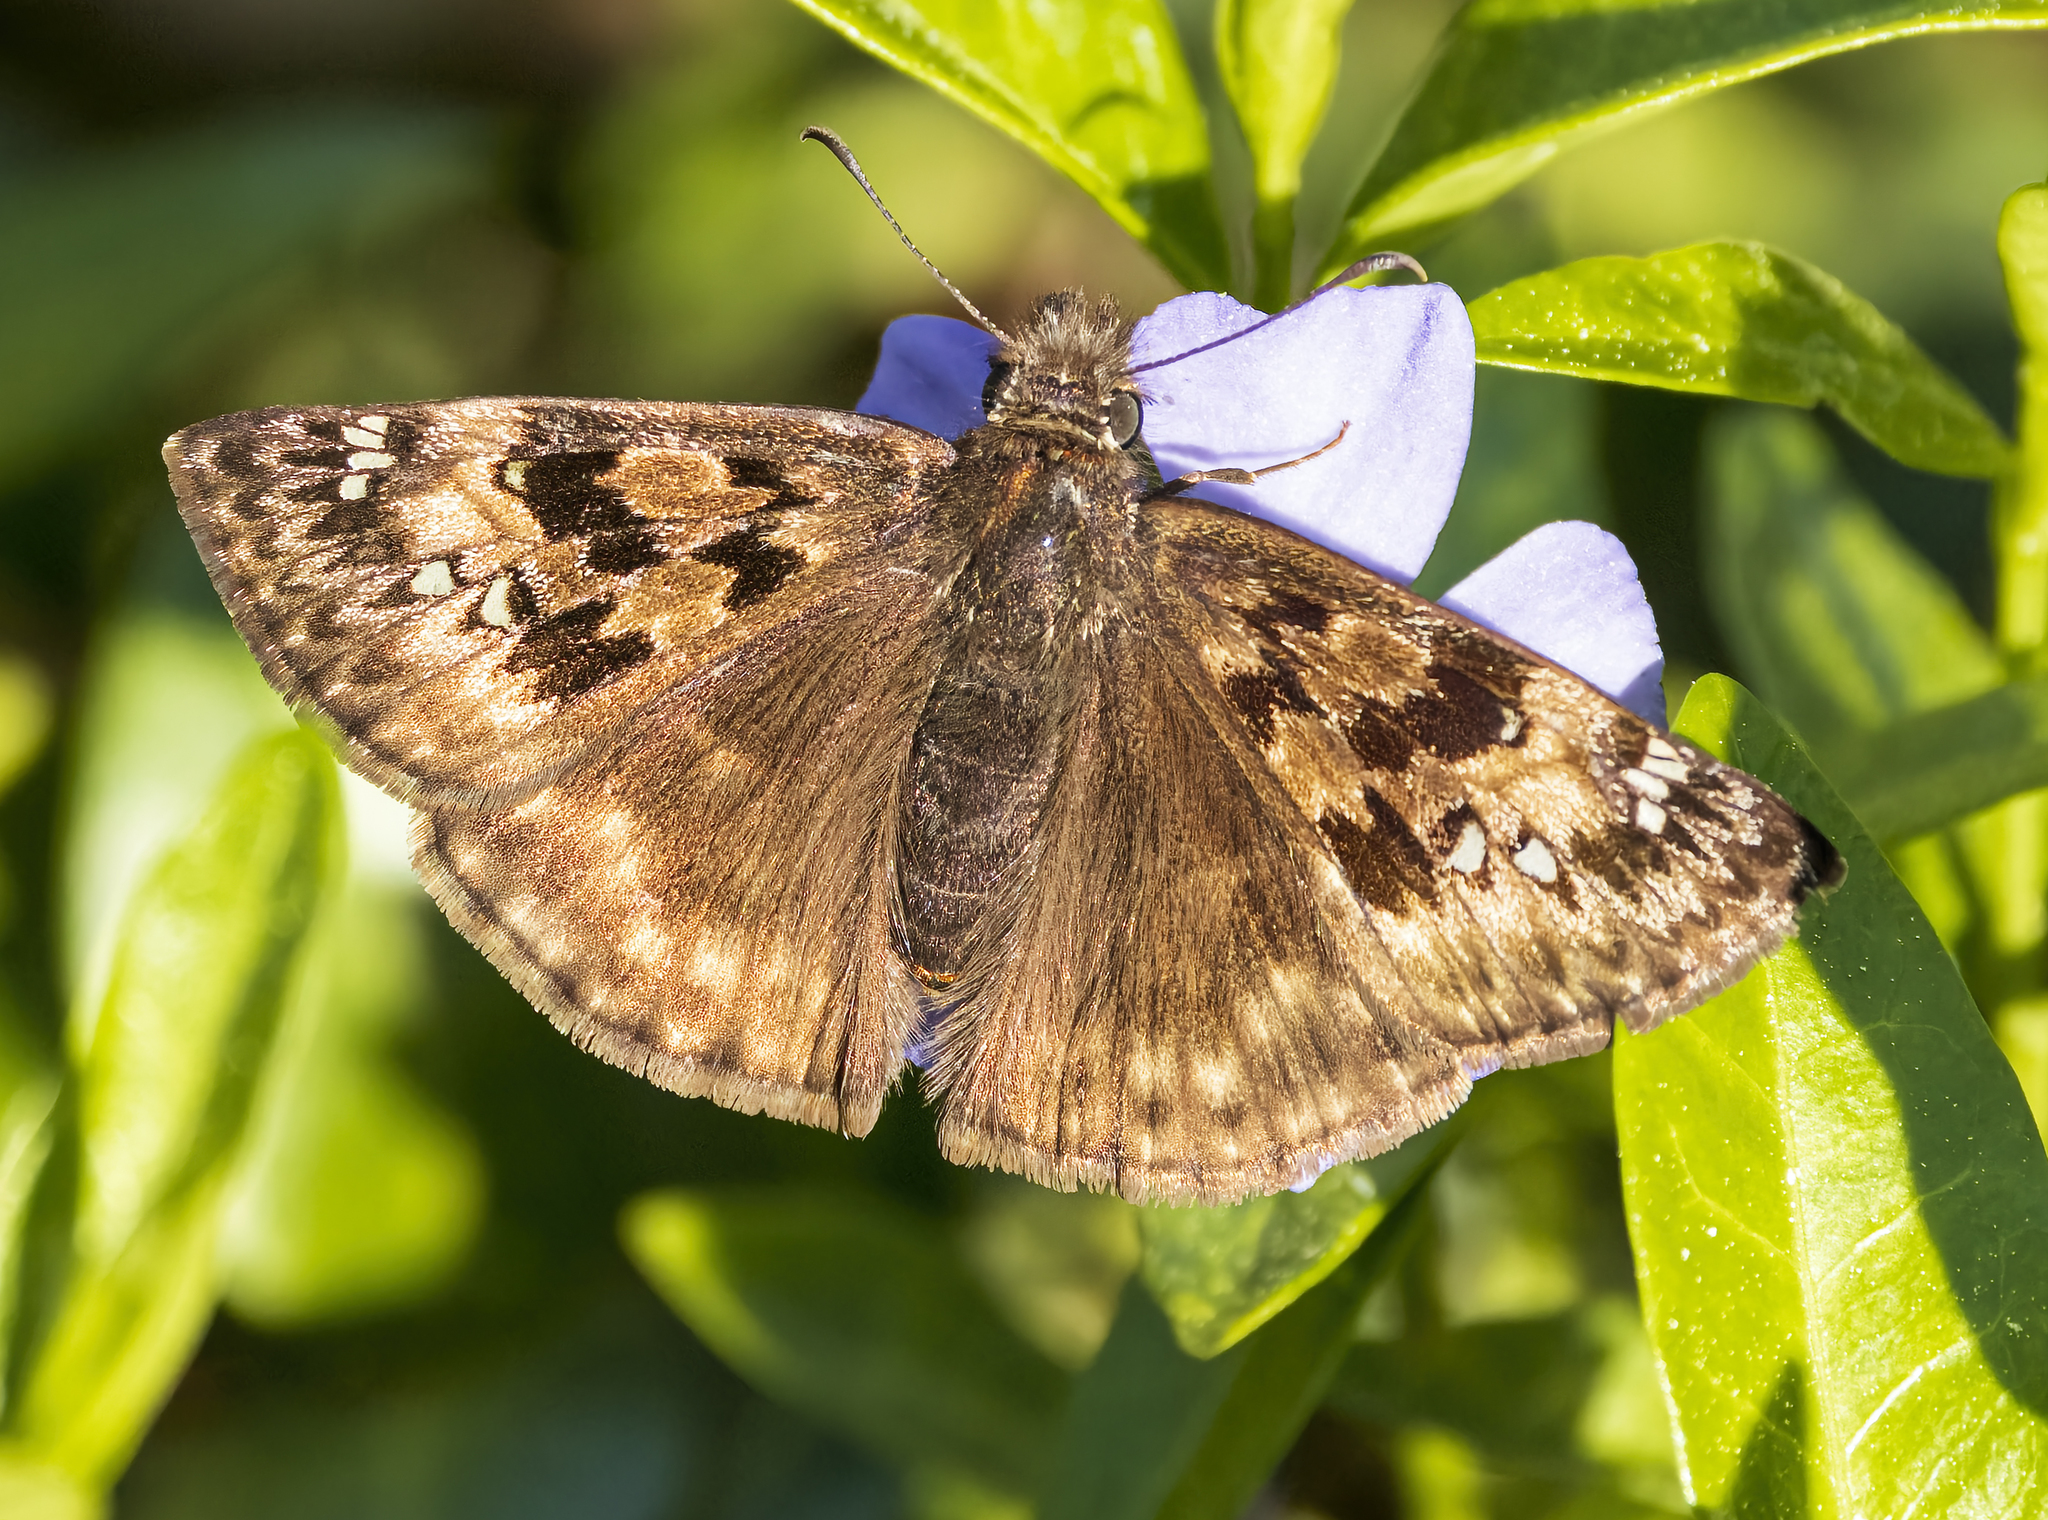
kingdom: Animalia
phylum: Arthropoda
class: Insecta
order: Lepidoptera
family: Hesperiidae
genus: Erynnis
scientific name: Erynnis
